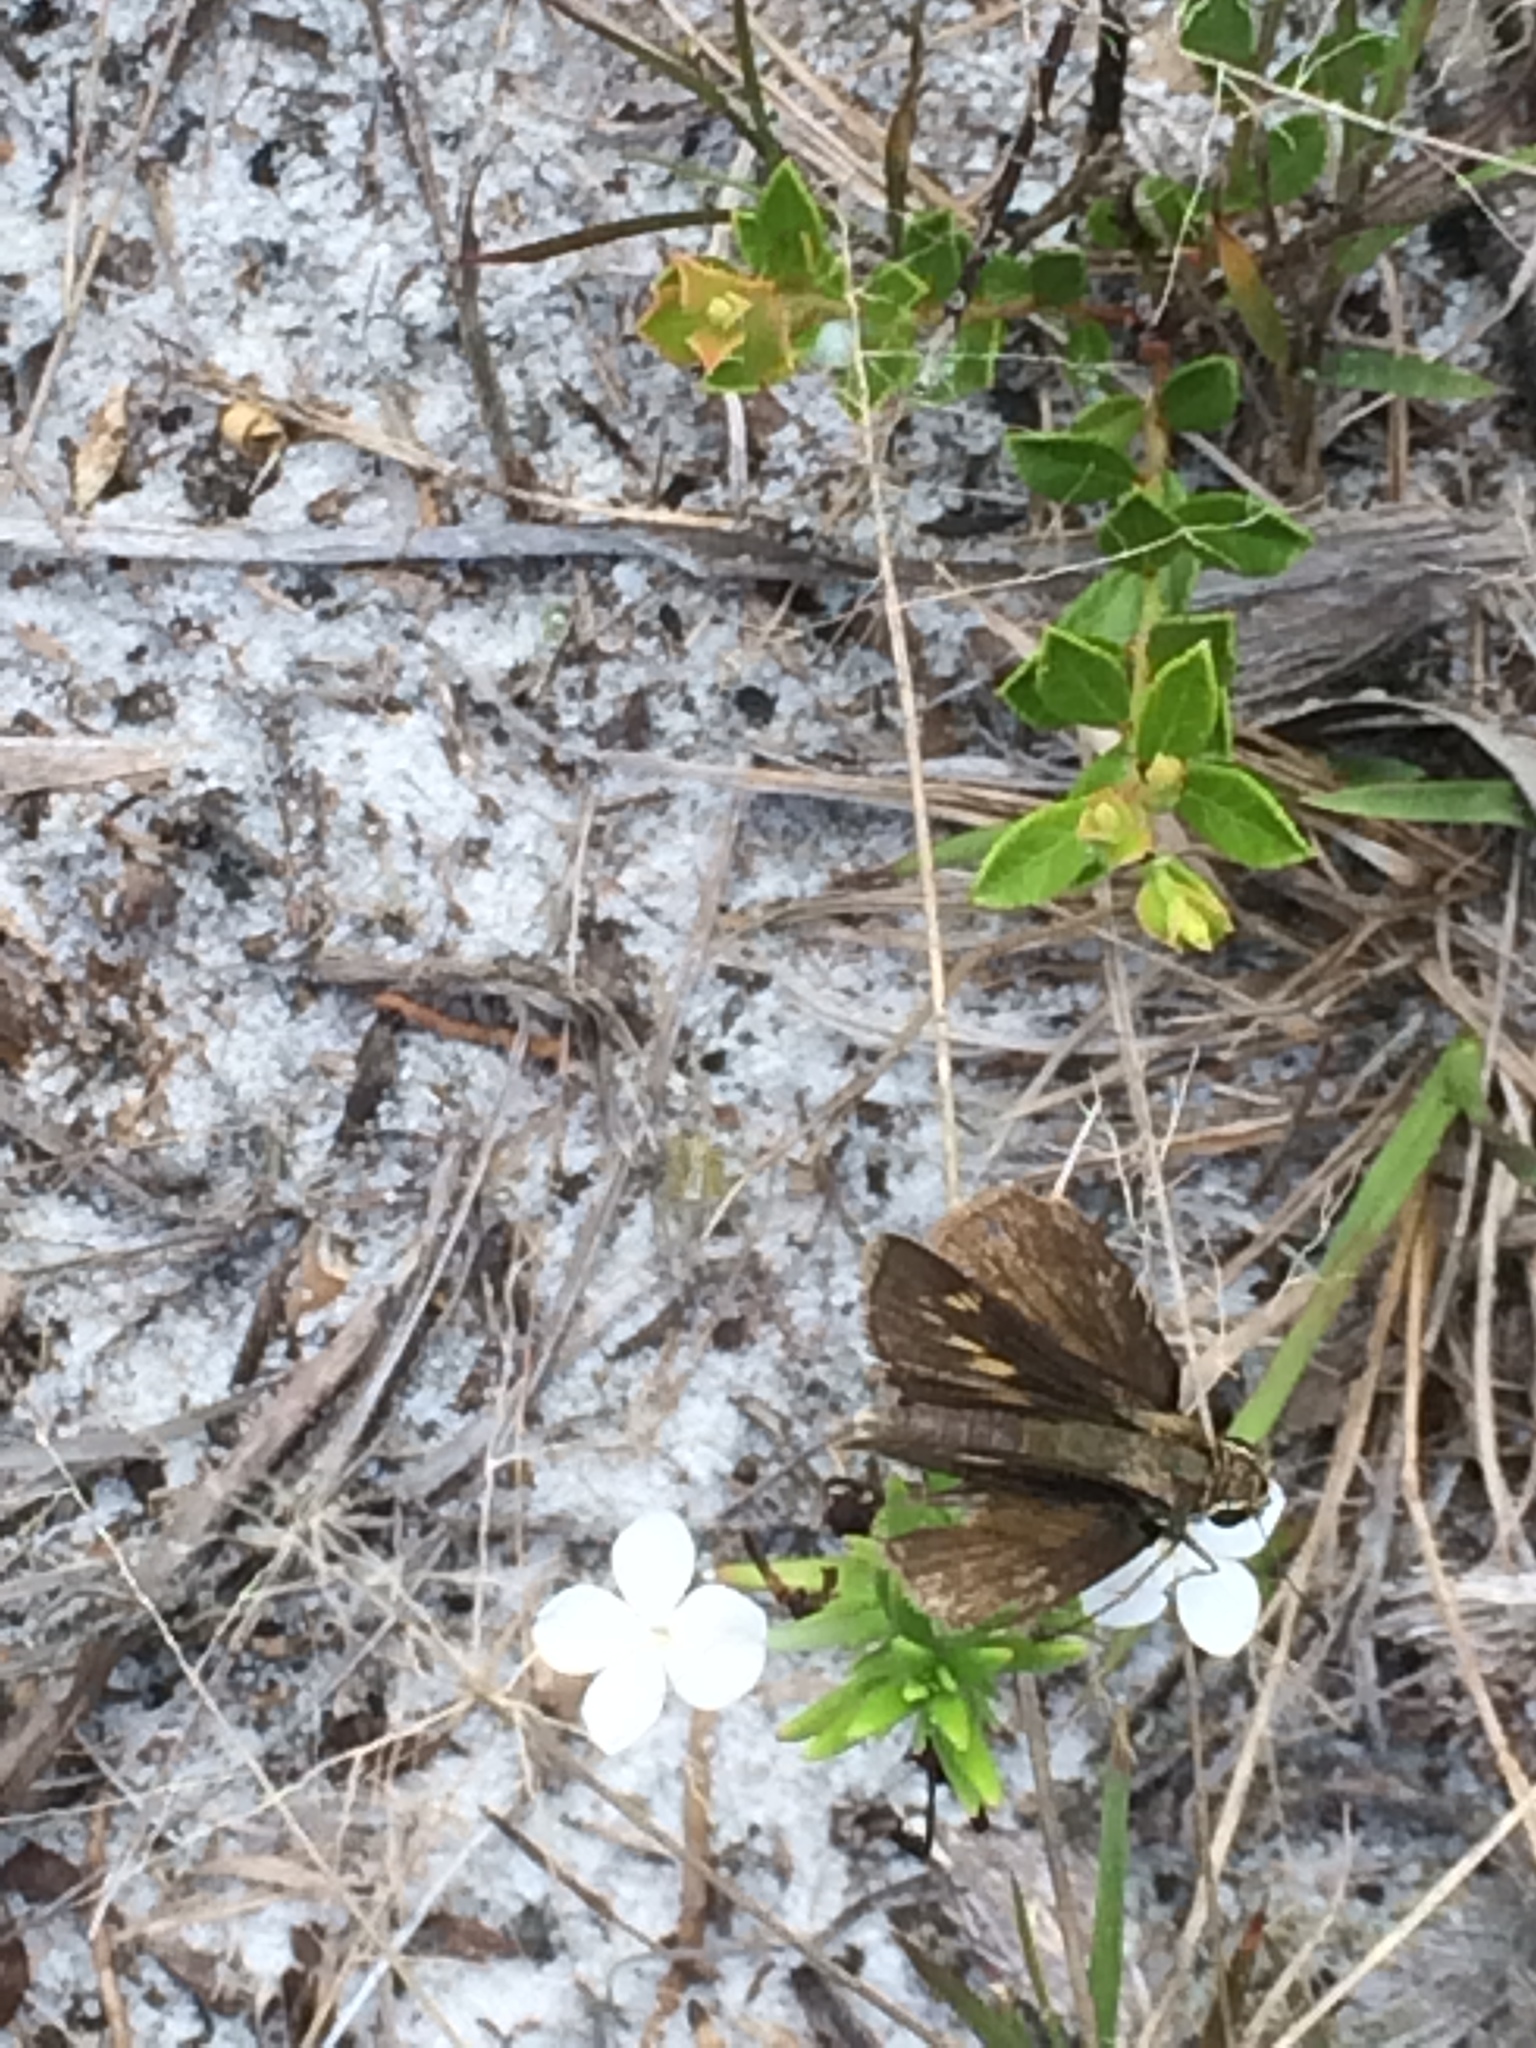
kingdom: Animalia
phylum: Arthropoda
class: Insecta
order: Lepidoptera
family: Hesperiidae
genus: Lerema
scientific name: Lerema accius
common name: Clouded skipper
